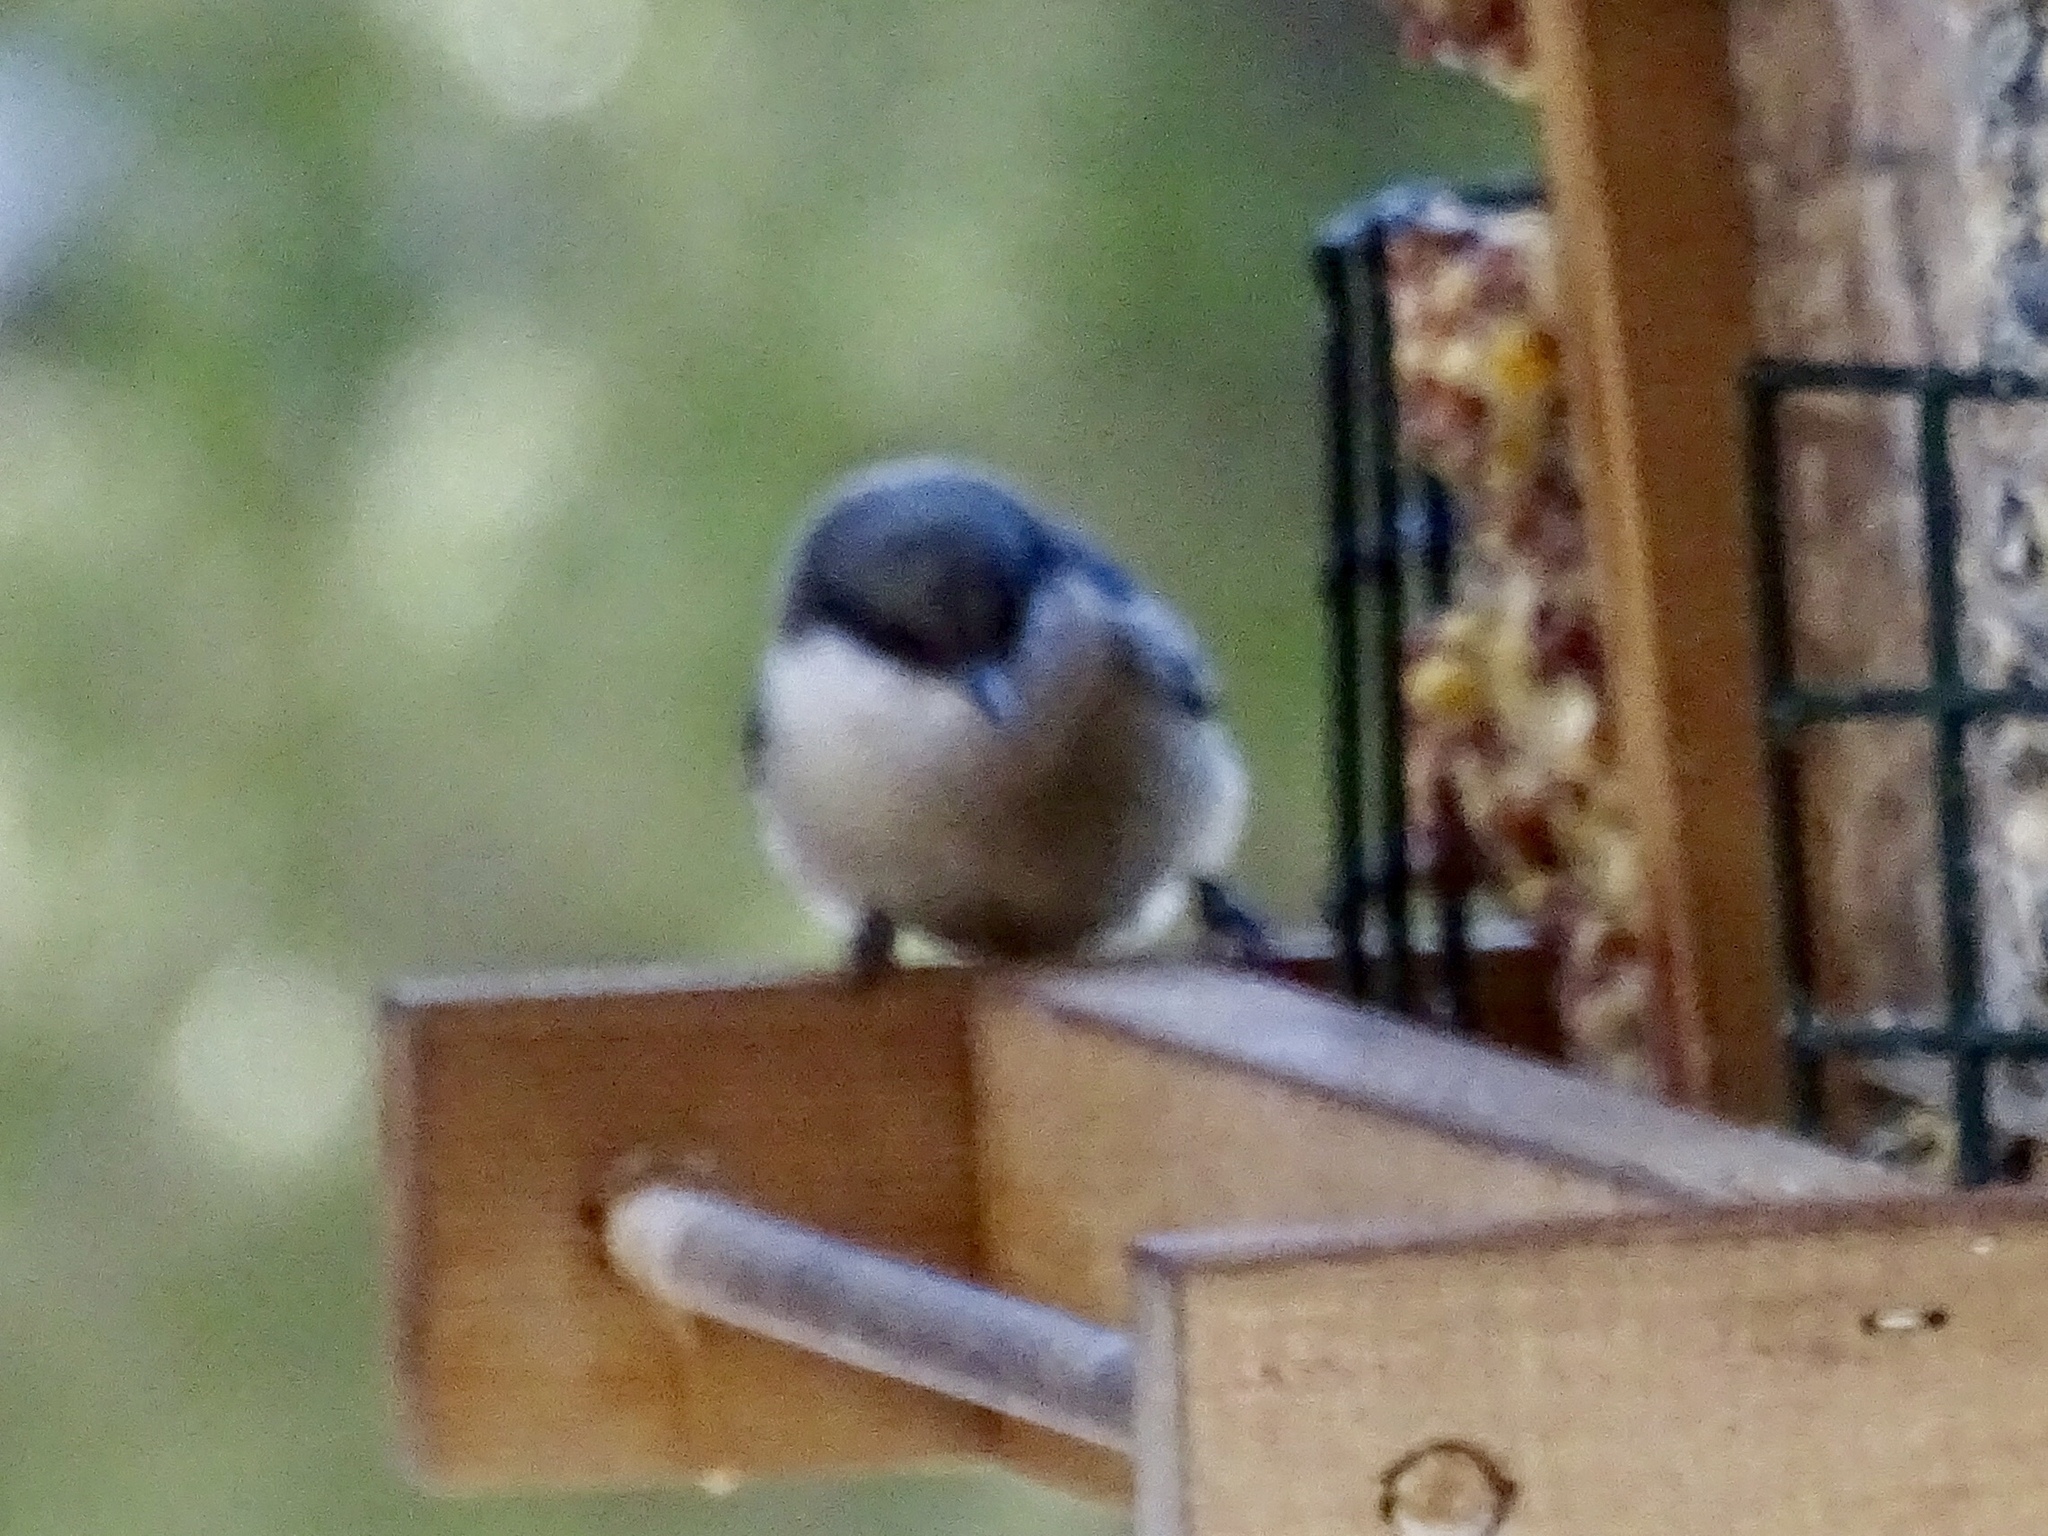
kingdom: Animalia
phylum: Chordata
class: Aves
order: Passeriformes
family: Sittidae
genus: Sitta
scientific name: Sitta pygmaea
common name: Pygmy nuthatch
